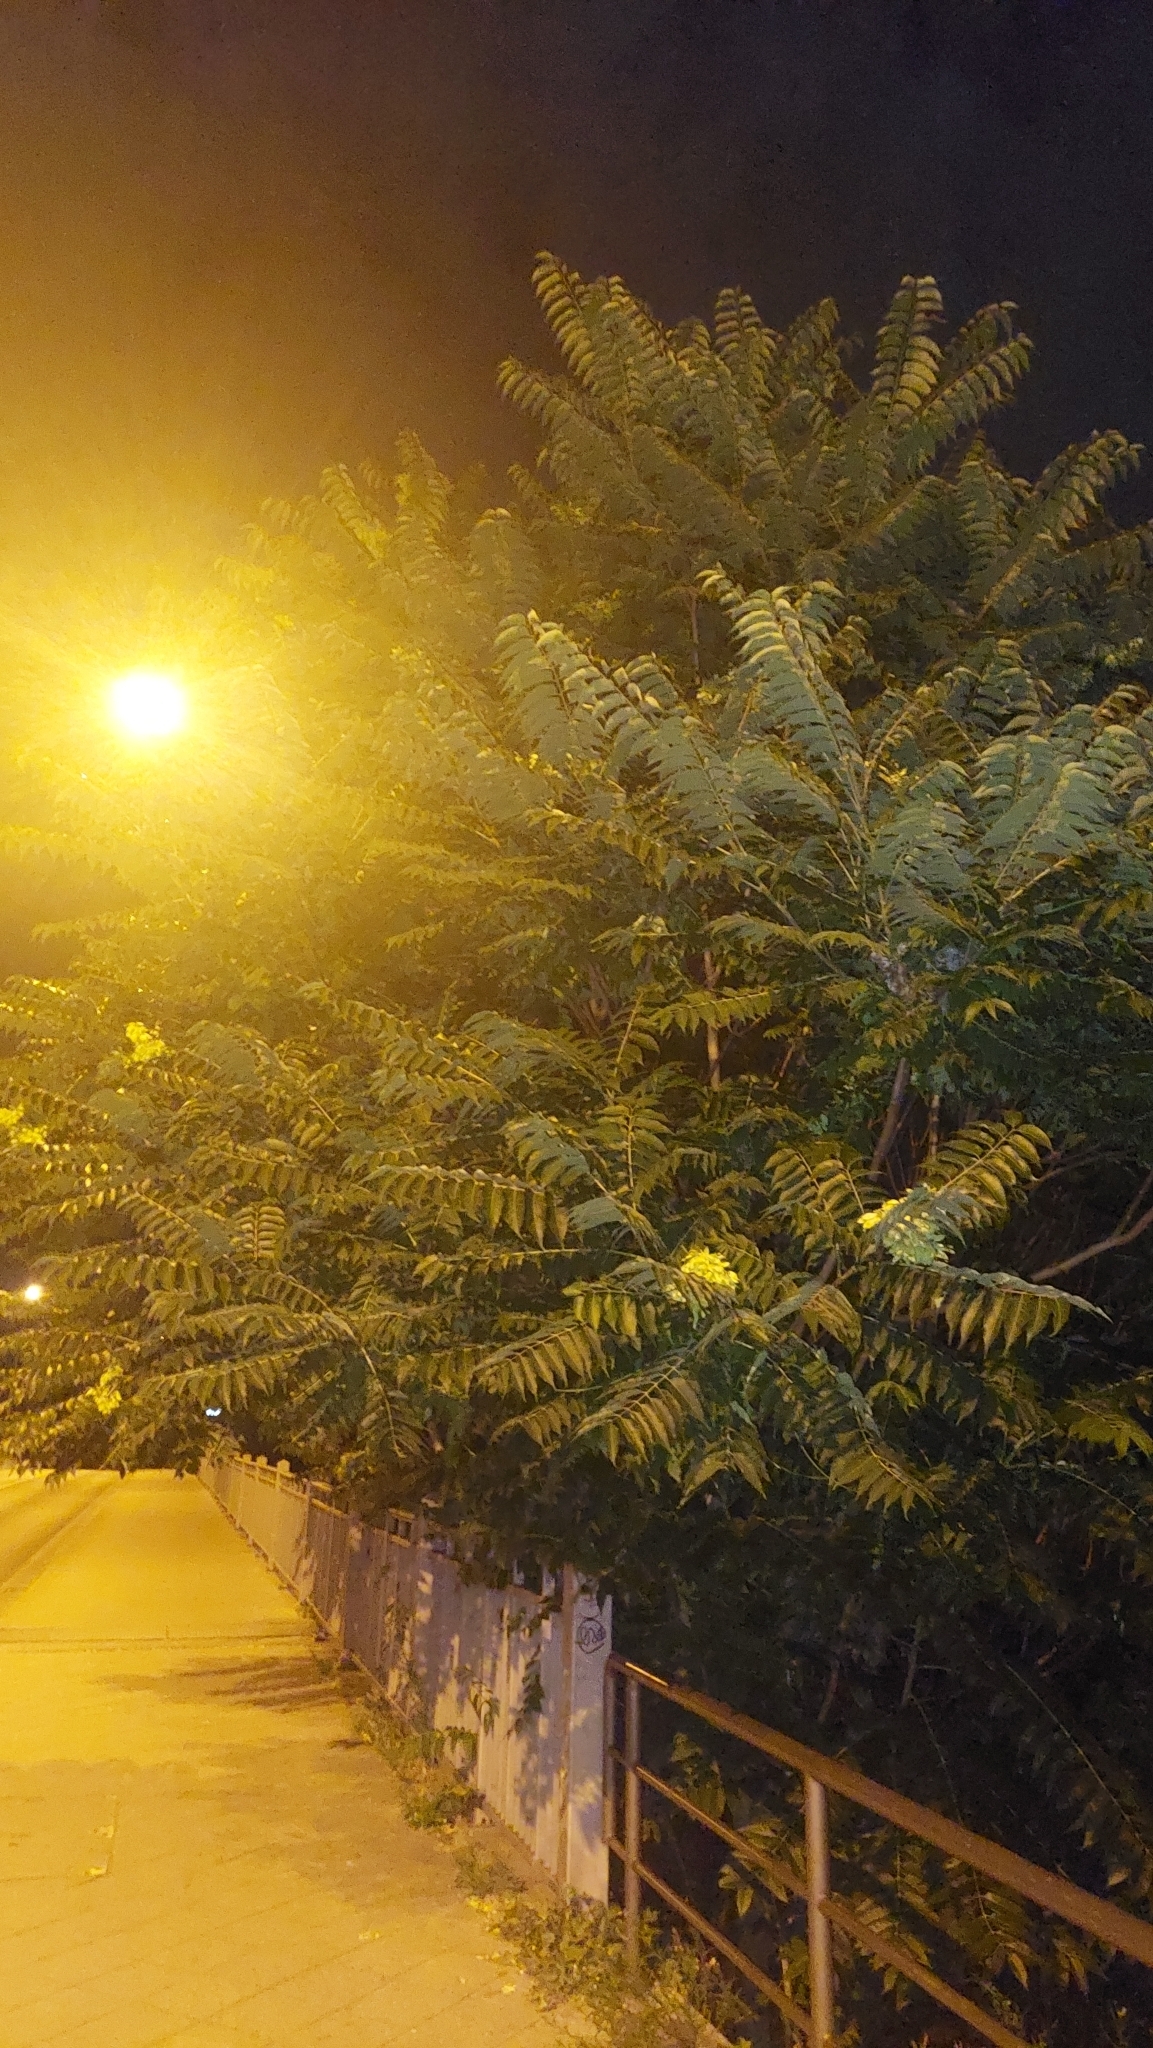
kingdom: Plantae
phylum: Tracheophyta
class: Magnoliopsida
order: Sapindales
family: Simaroubaceae
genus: Ailanthus
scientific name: Ailanthus altissima
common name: Tree-of-heaven
